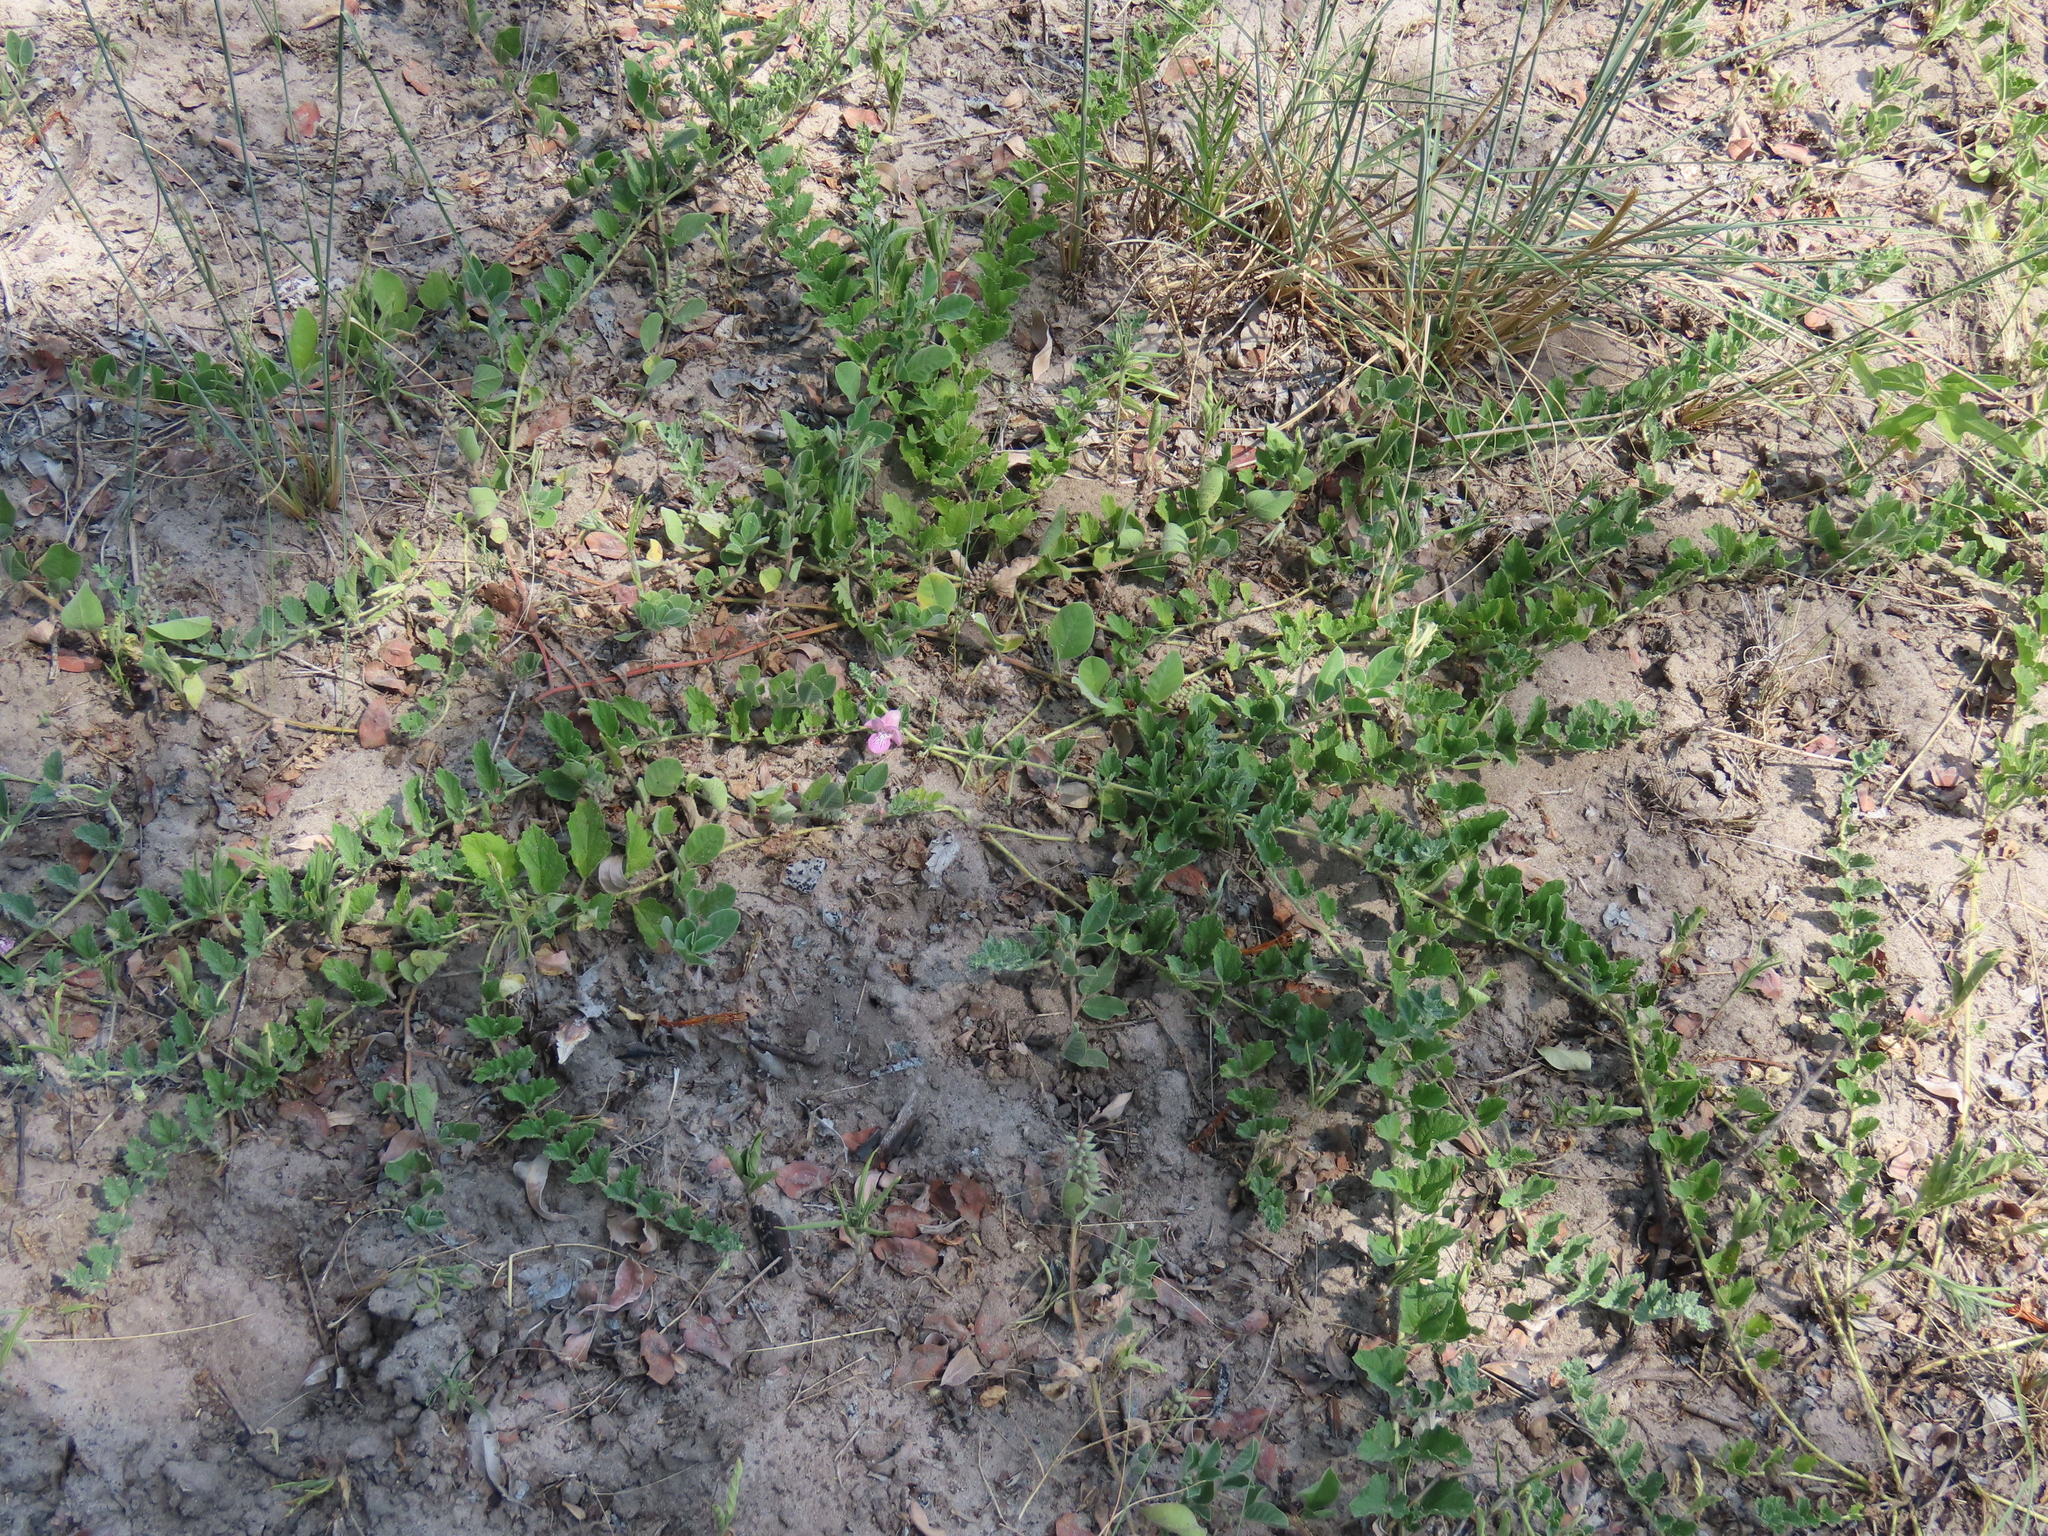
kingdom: Plantae
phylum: Tracheophyta
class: Magnoliopsida
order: Lamiales
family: Pedaliaceae
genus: Dicerocaryum
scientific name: Dicerocaryum eriocarpum
